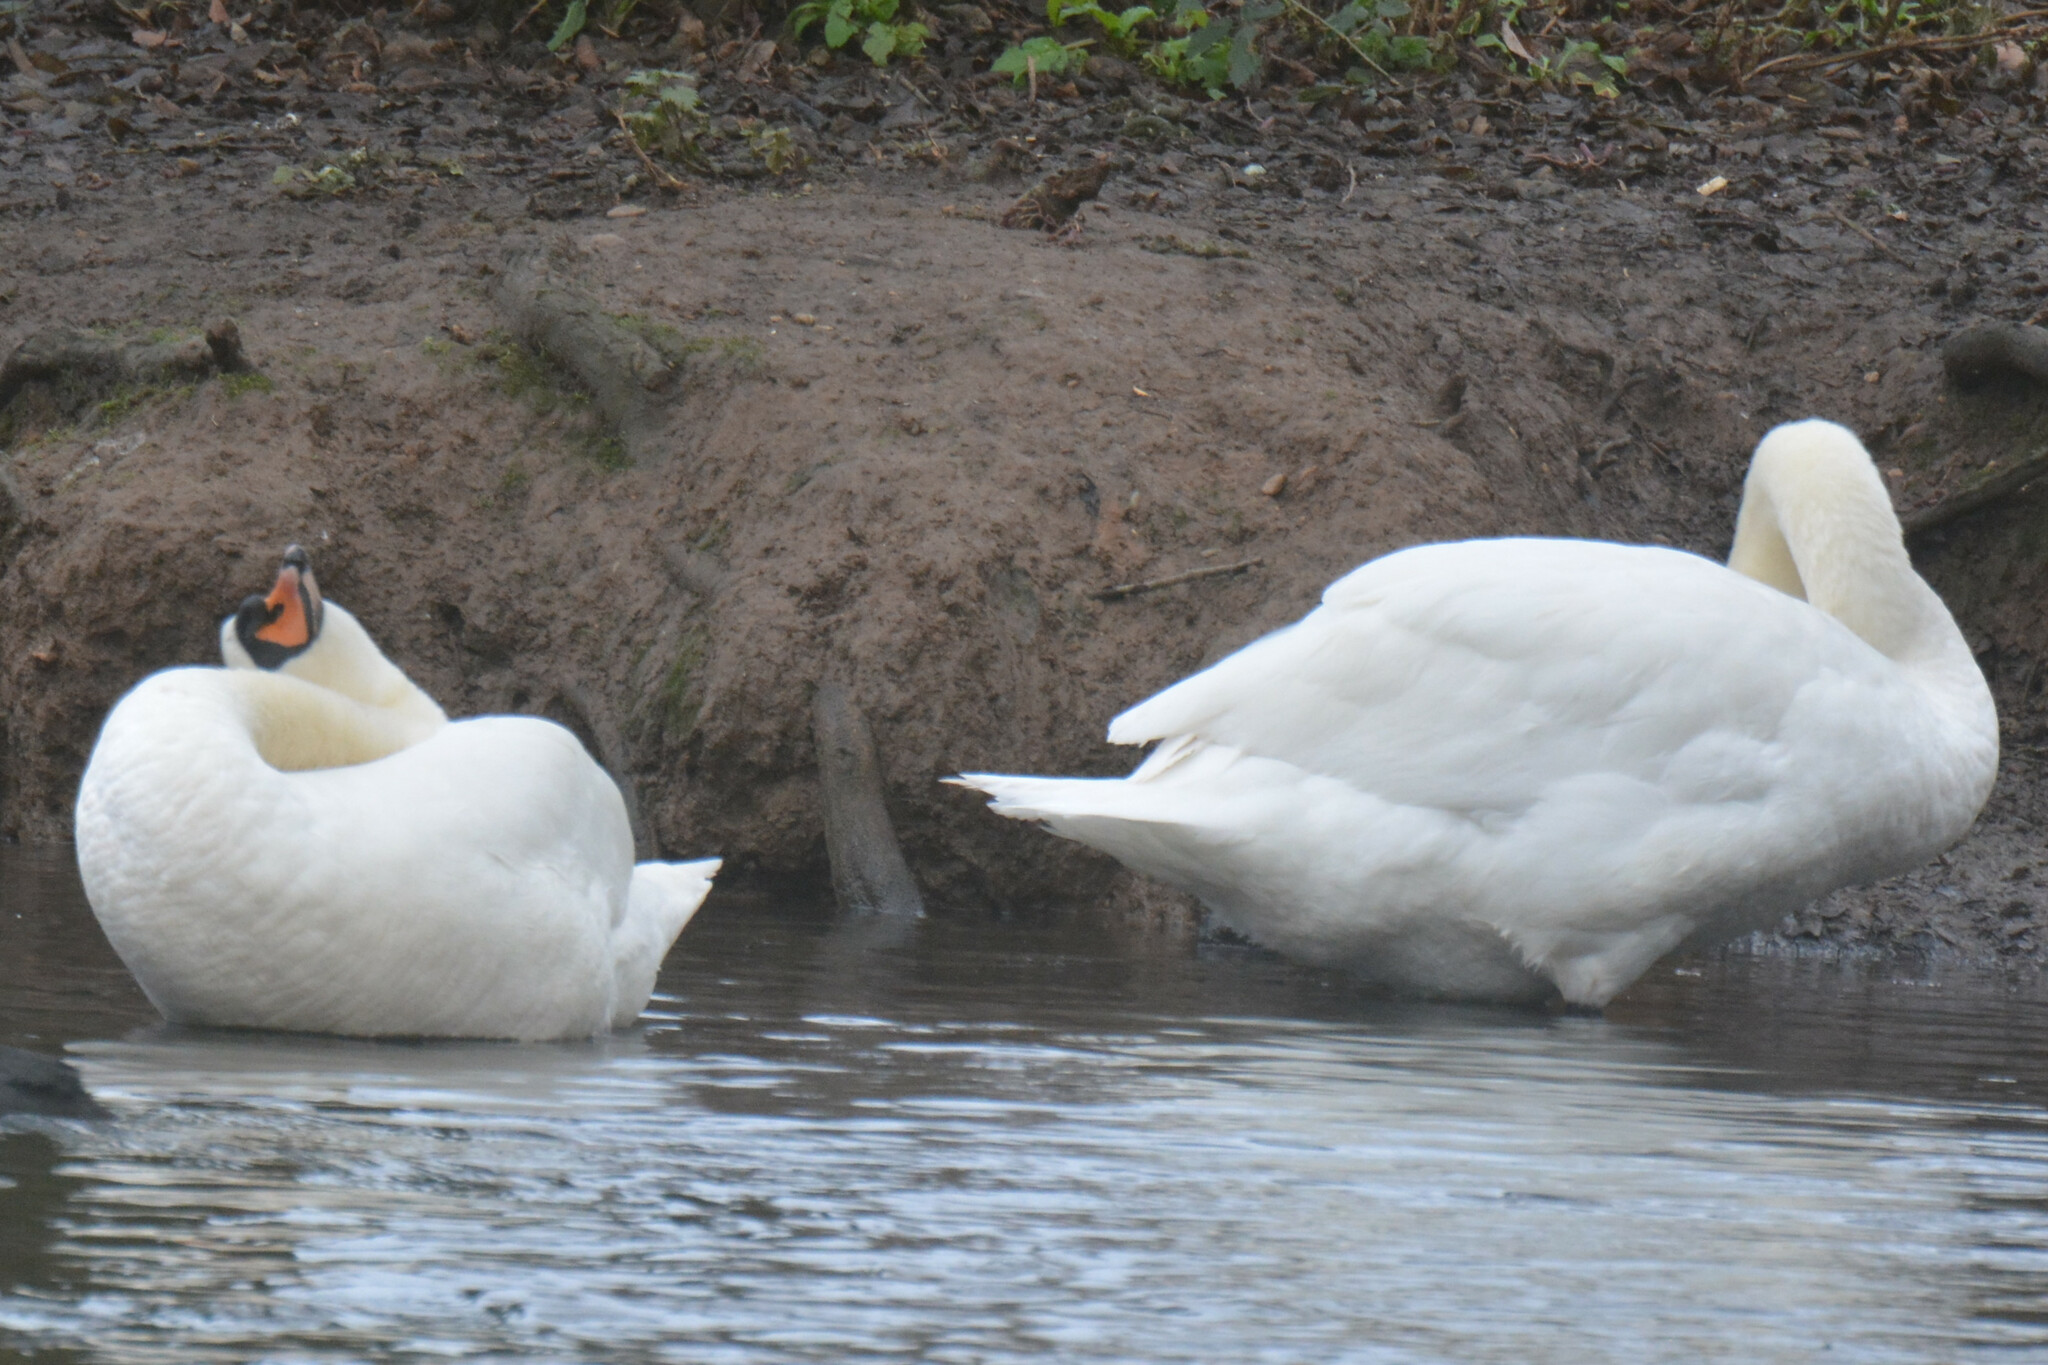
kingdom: Animalia
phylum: Chordata
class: Aves
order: Anseriformes
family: Anatidae
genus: Cygnus
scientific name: Cygnus olor
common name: Mute swan
